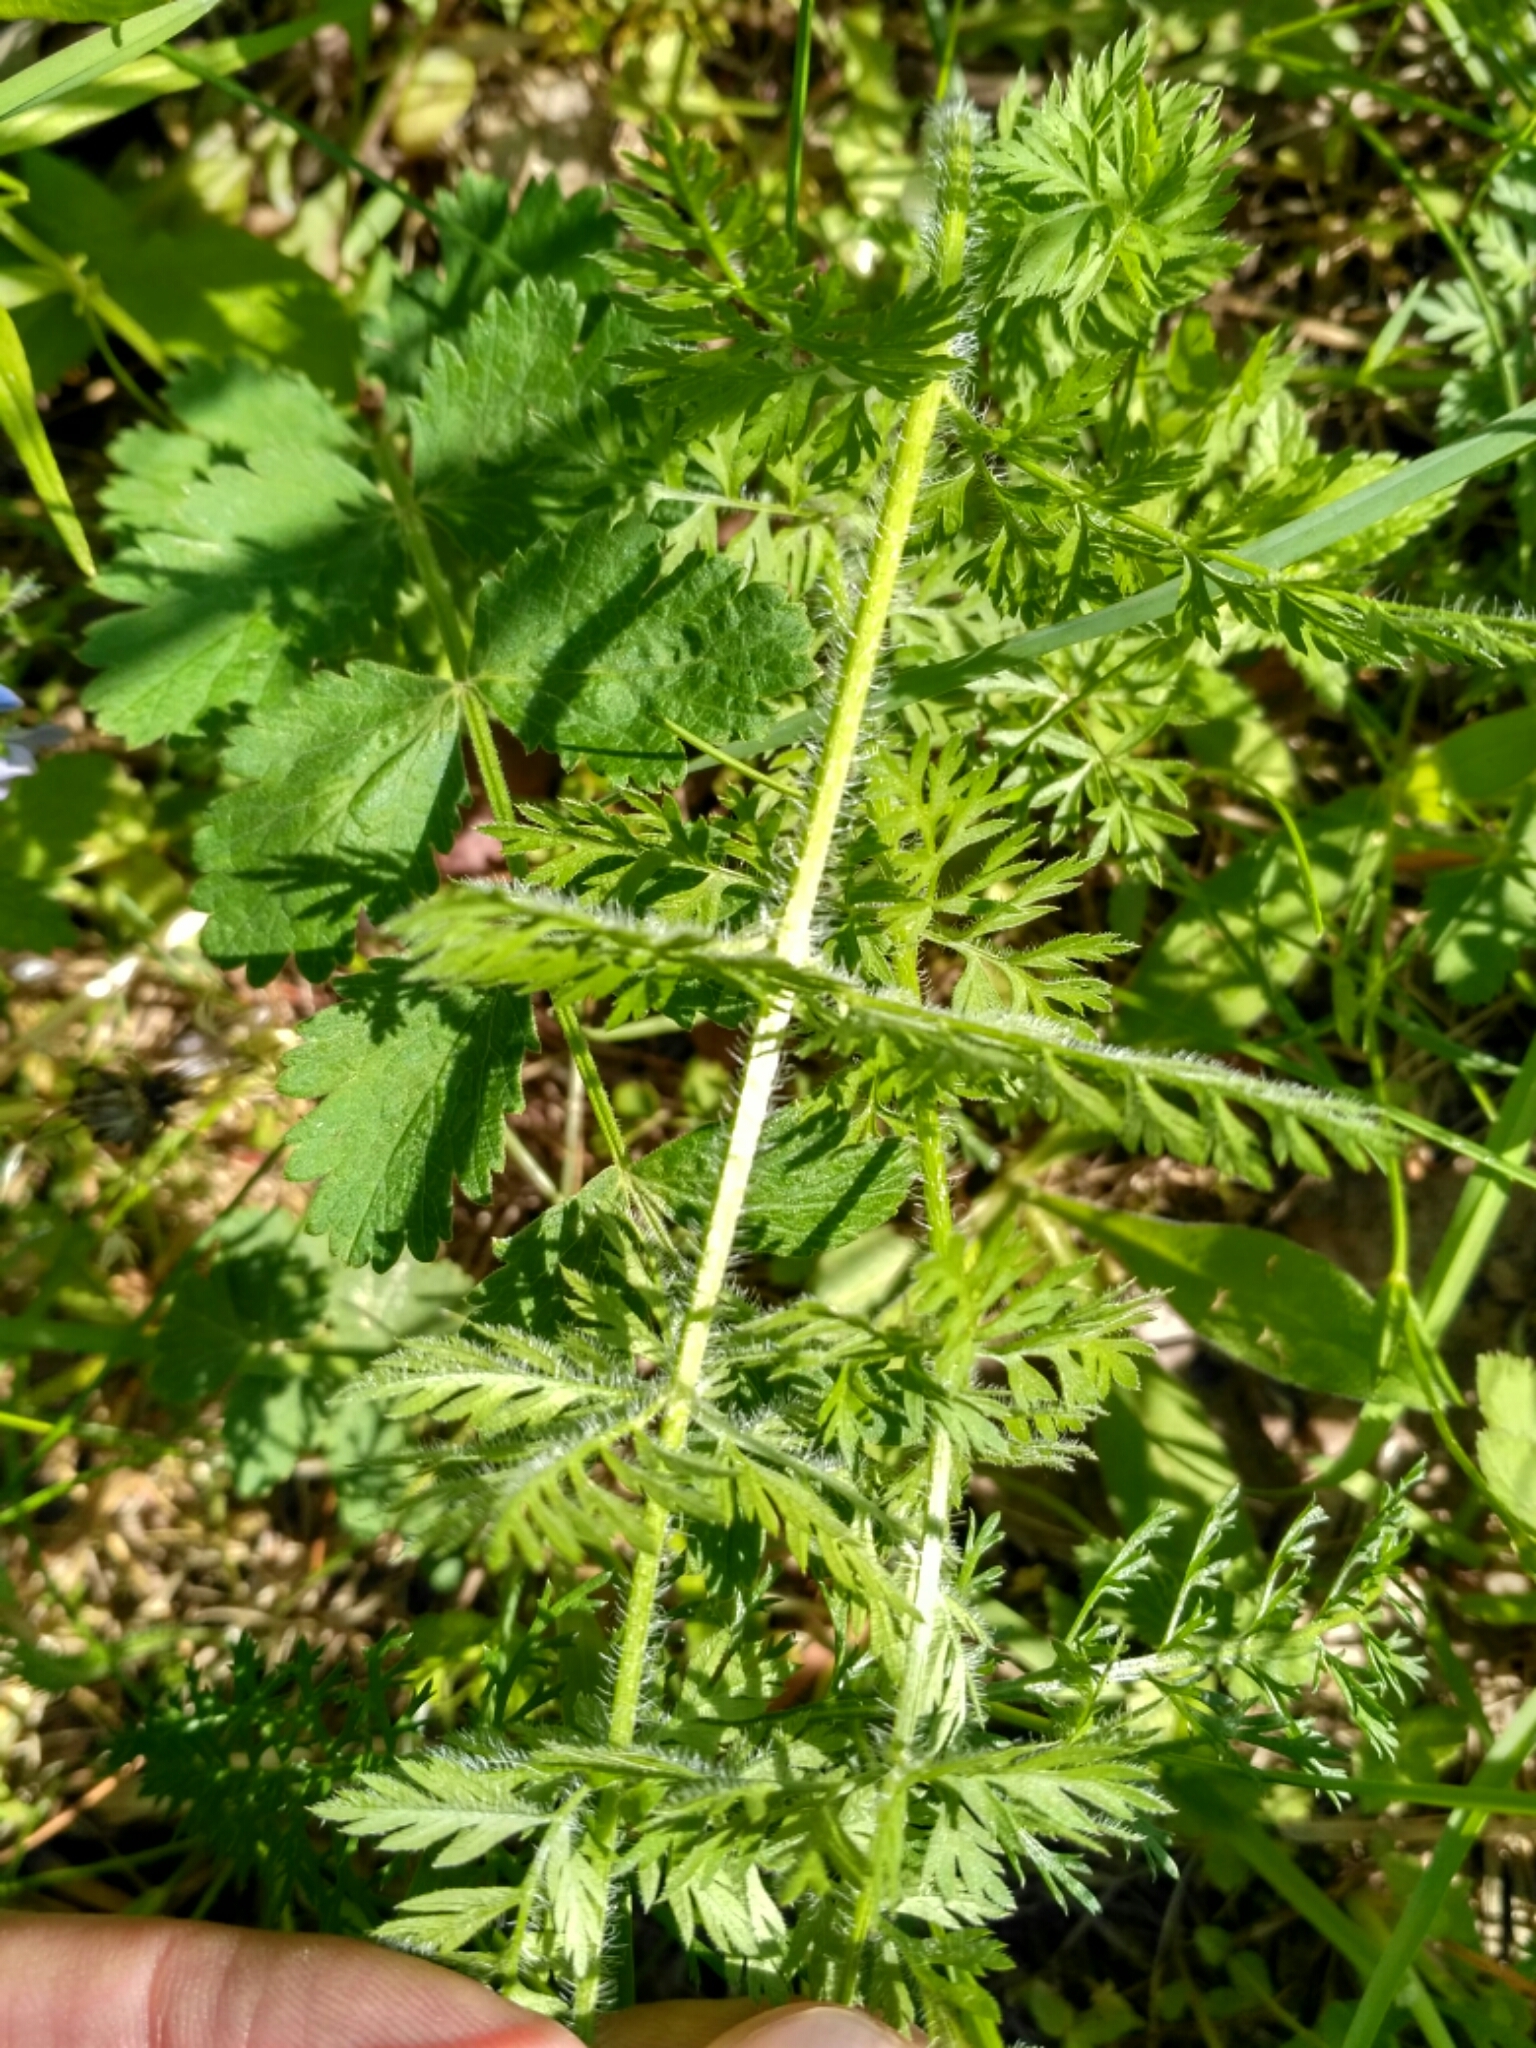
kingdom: Plantae
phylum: Tracheophyta
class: Magnoliopsida
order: Apiales
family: Apiaceae
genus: Daucus
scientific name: Daucus carota
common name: Wild carrot
